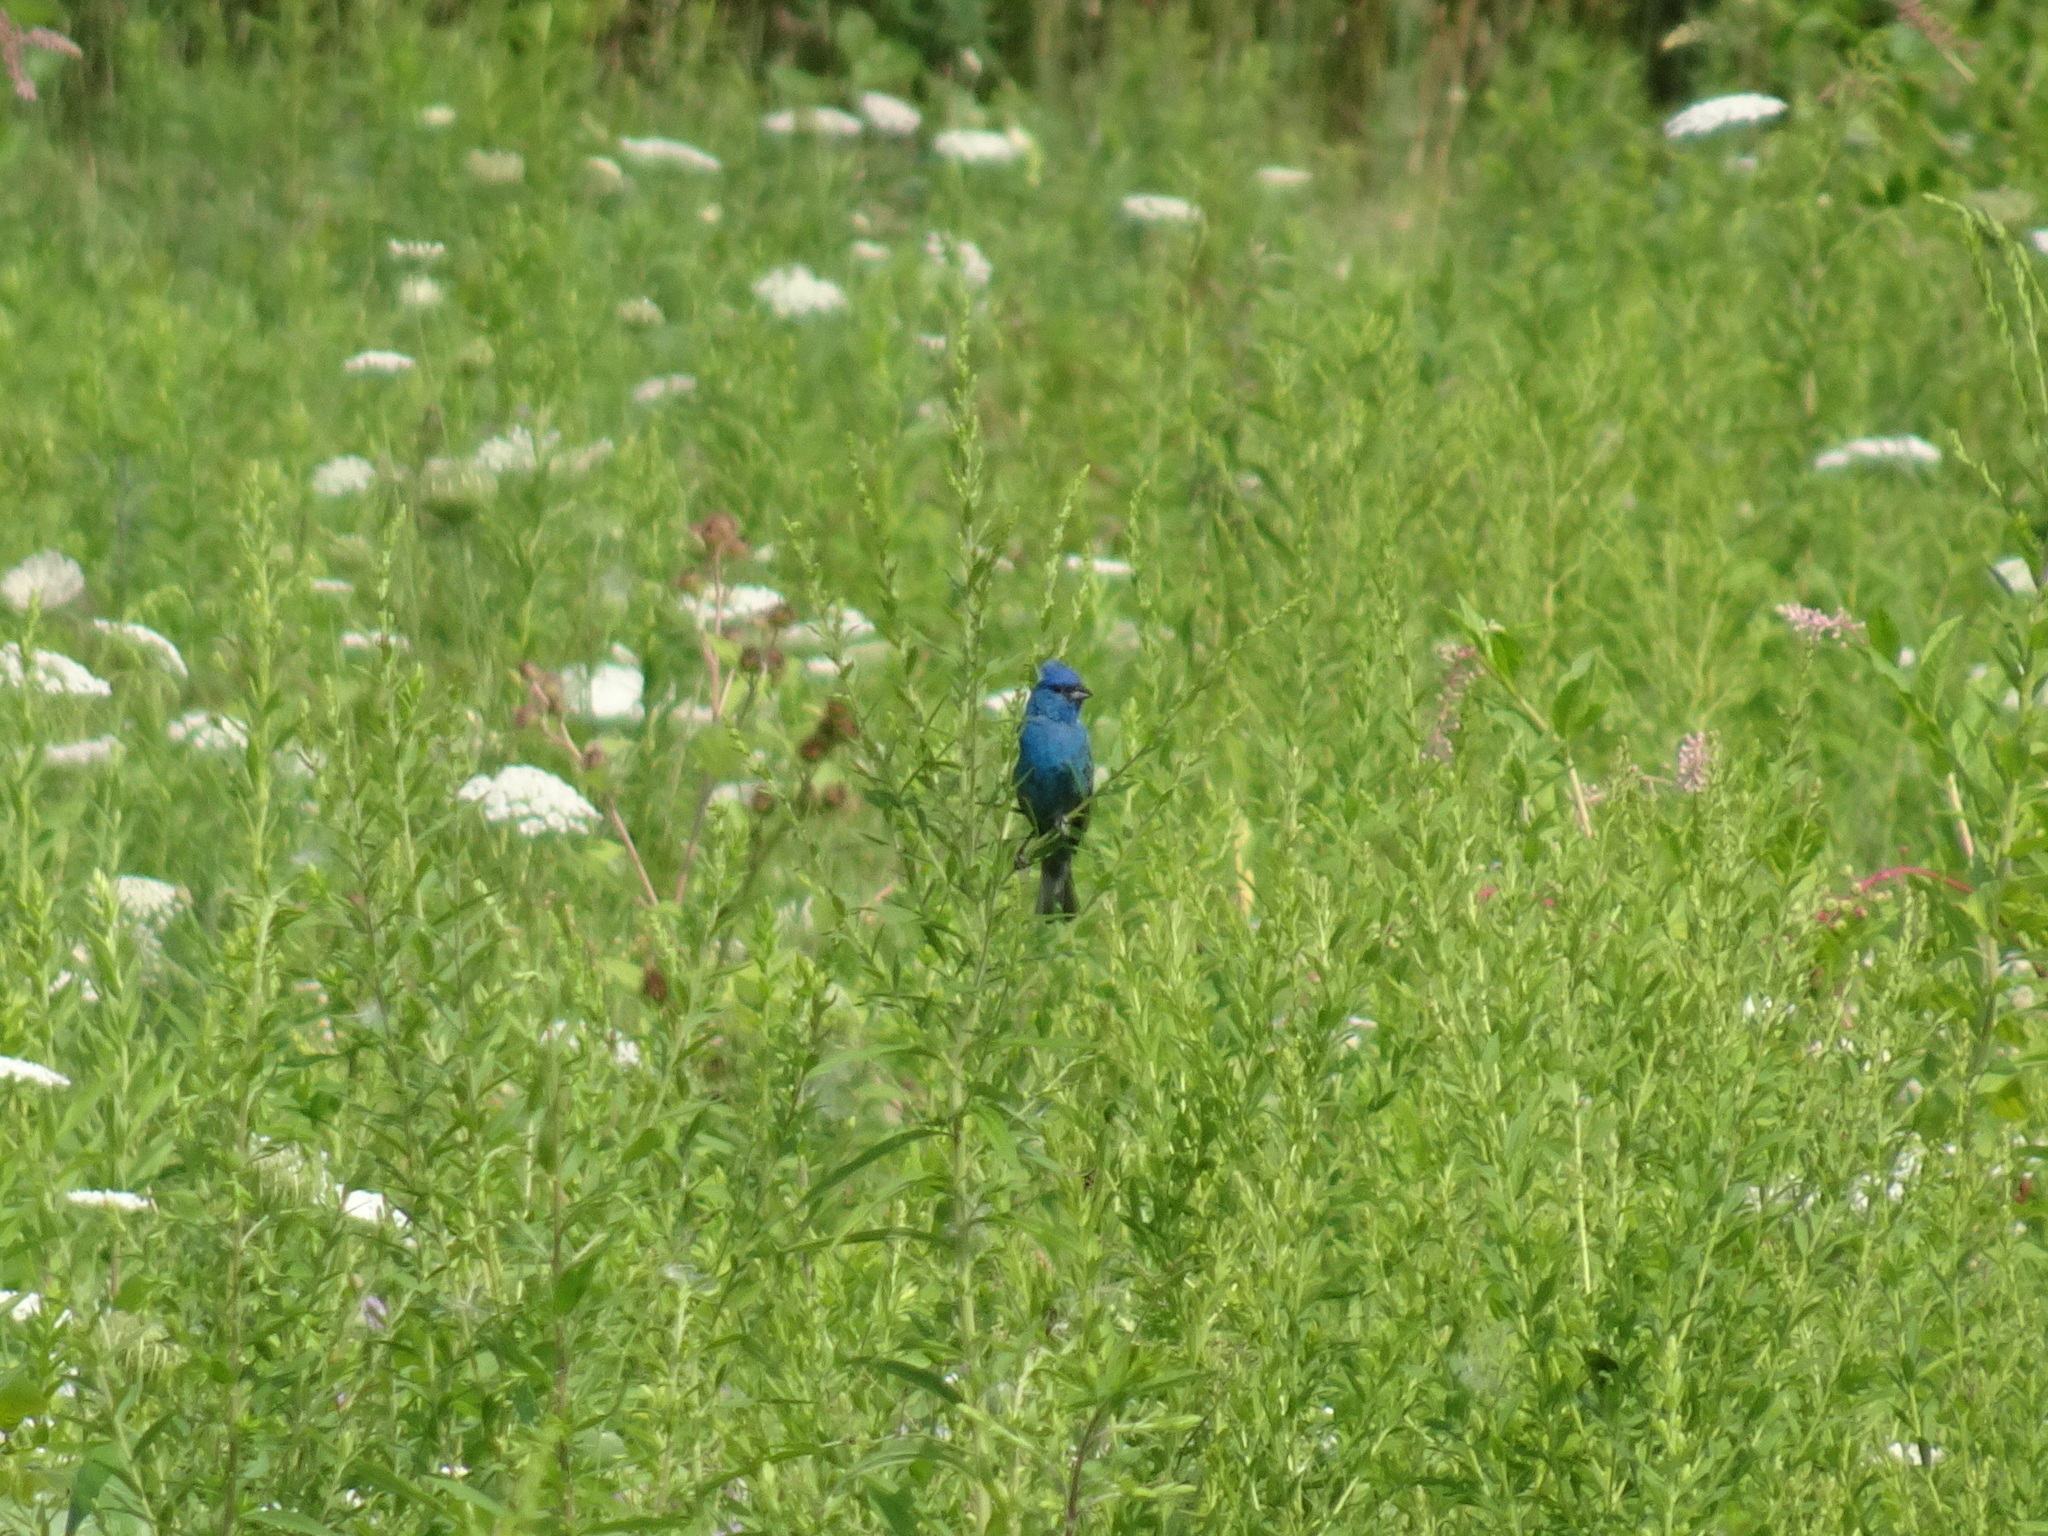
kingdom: Animalia
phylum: Chordata
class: Aves
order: Passeriformes
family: Cardinalidae
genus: Passerina
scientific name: Passerina cyanea
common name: Indigo bunting
